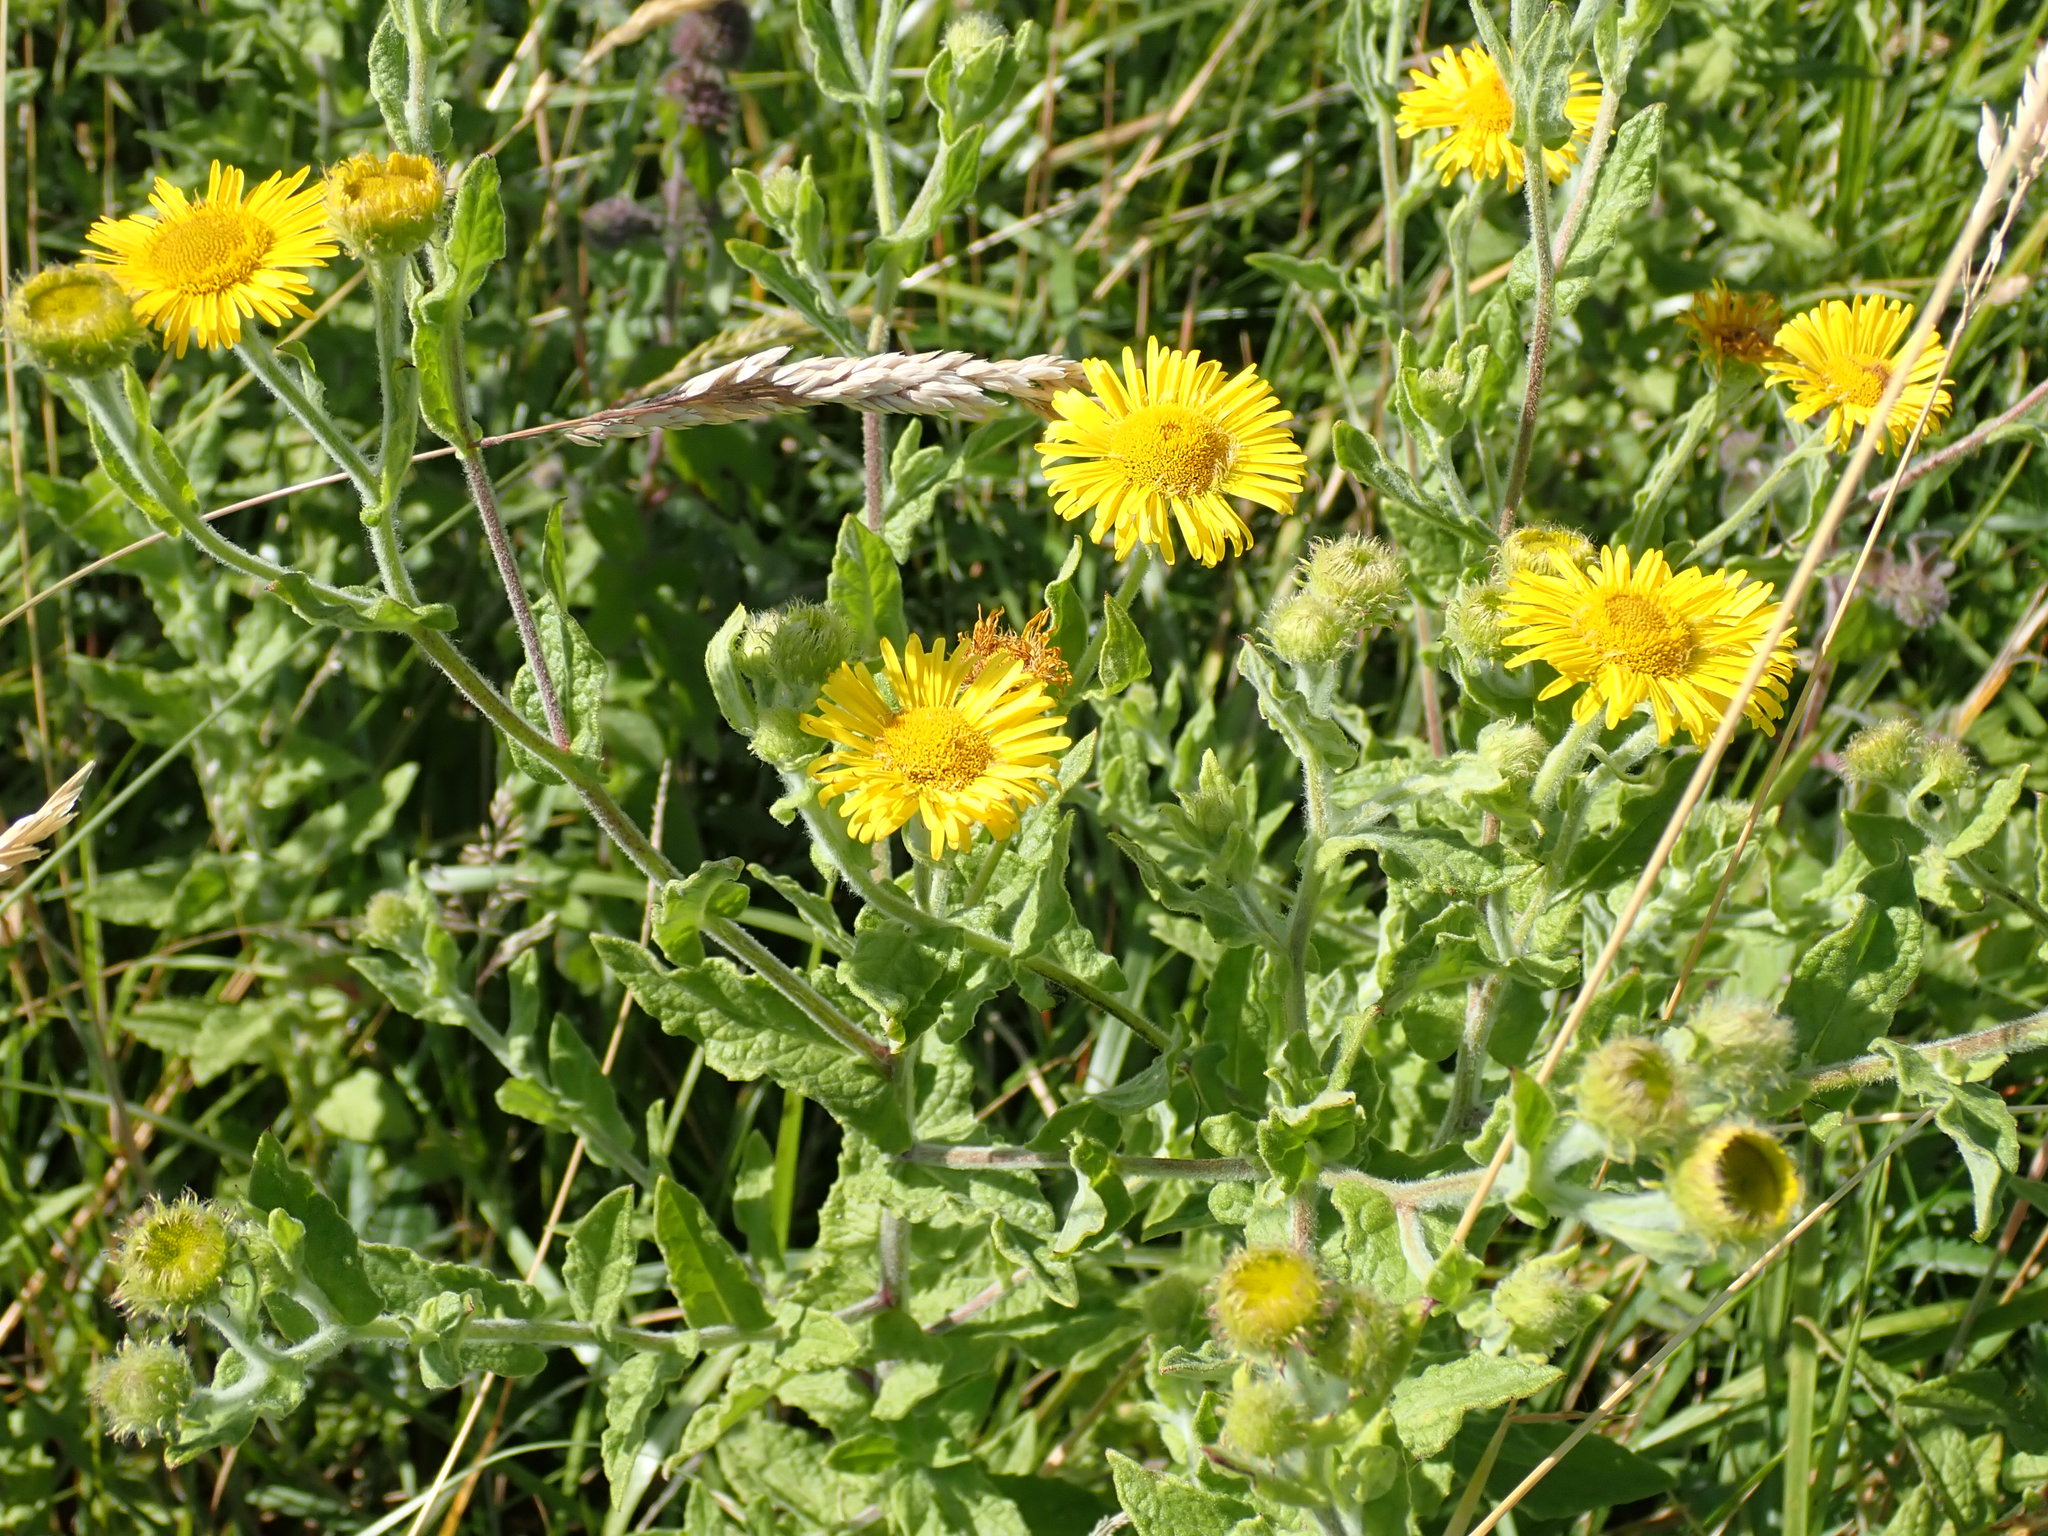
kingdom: Plantae
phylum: Tracheophyta
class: Magnoliopsida
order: Asterales
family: Asteraceae
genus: Pulicaria
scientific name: Pulicaria dysenterica
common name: Common fleabane
